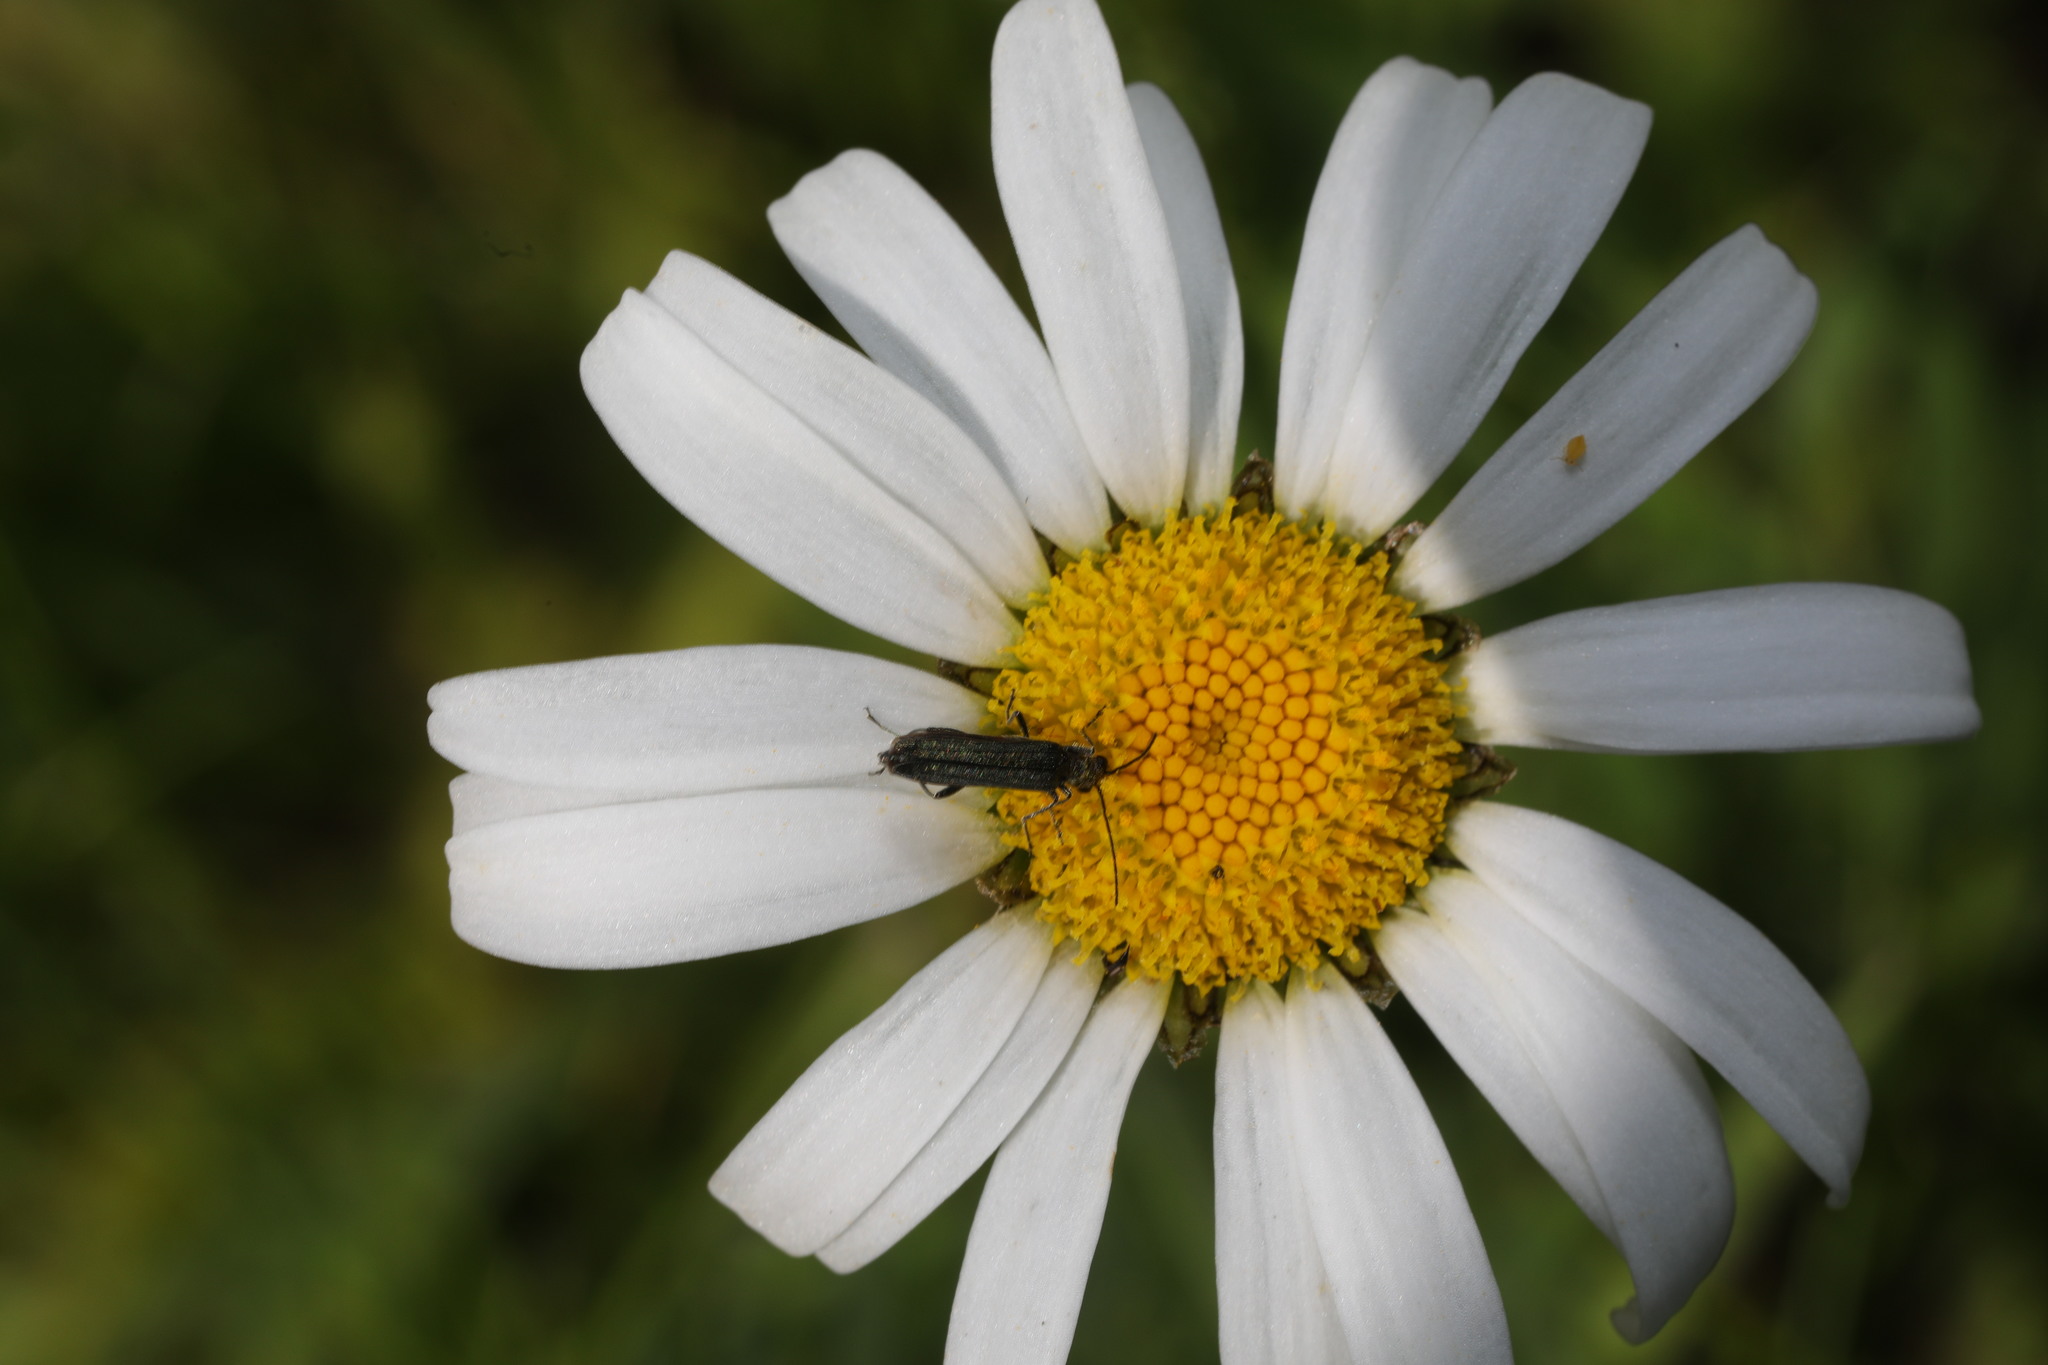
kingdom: Animalia
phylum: Arthropoda
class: Insecta
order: Coleoptera
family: Oedemeridae
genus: Oedemera
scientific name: Oedemera lurida
